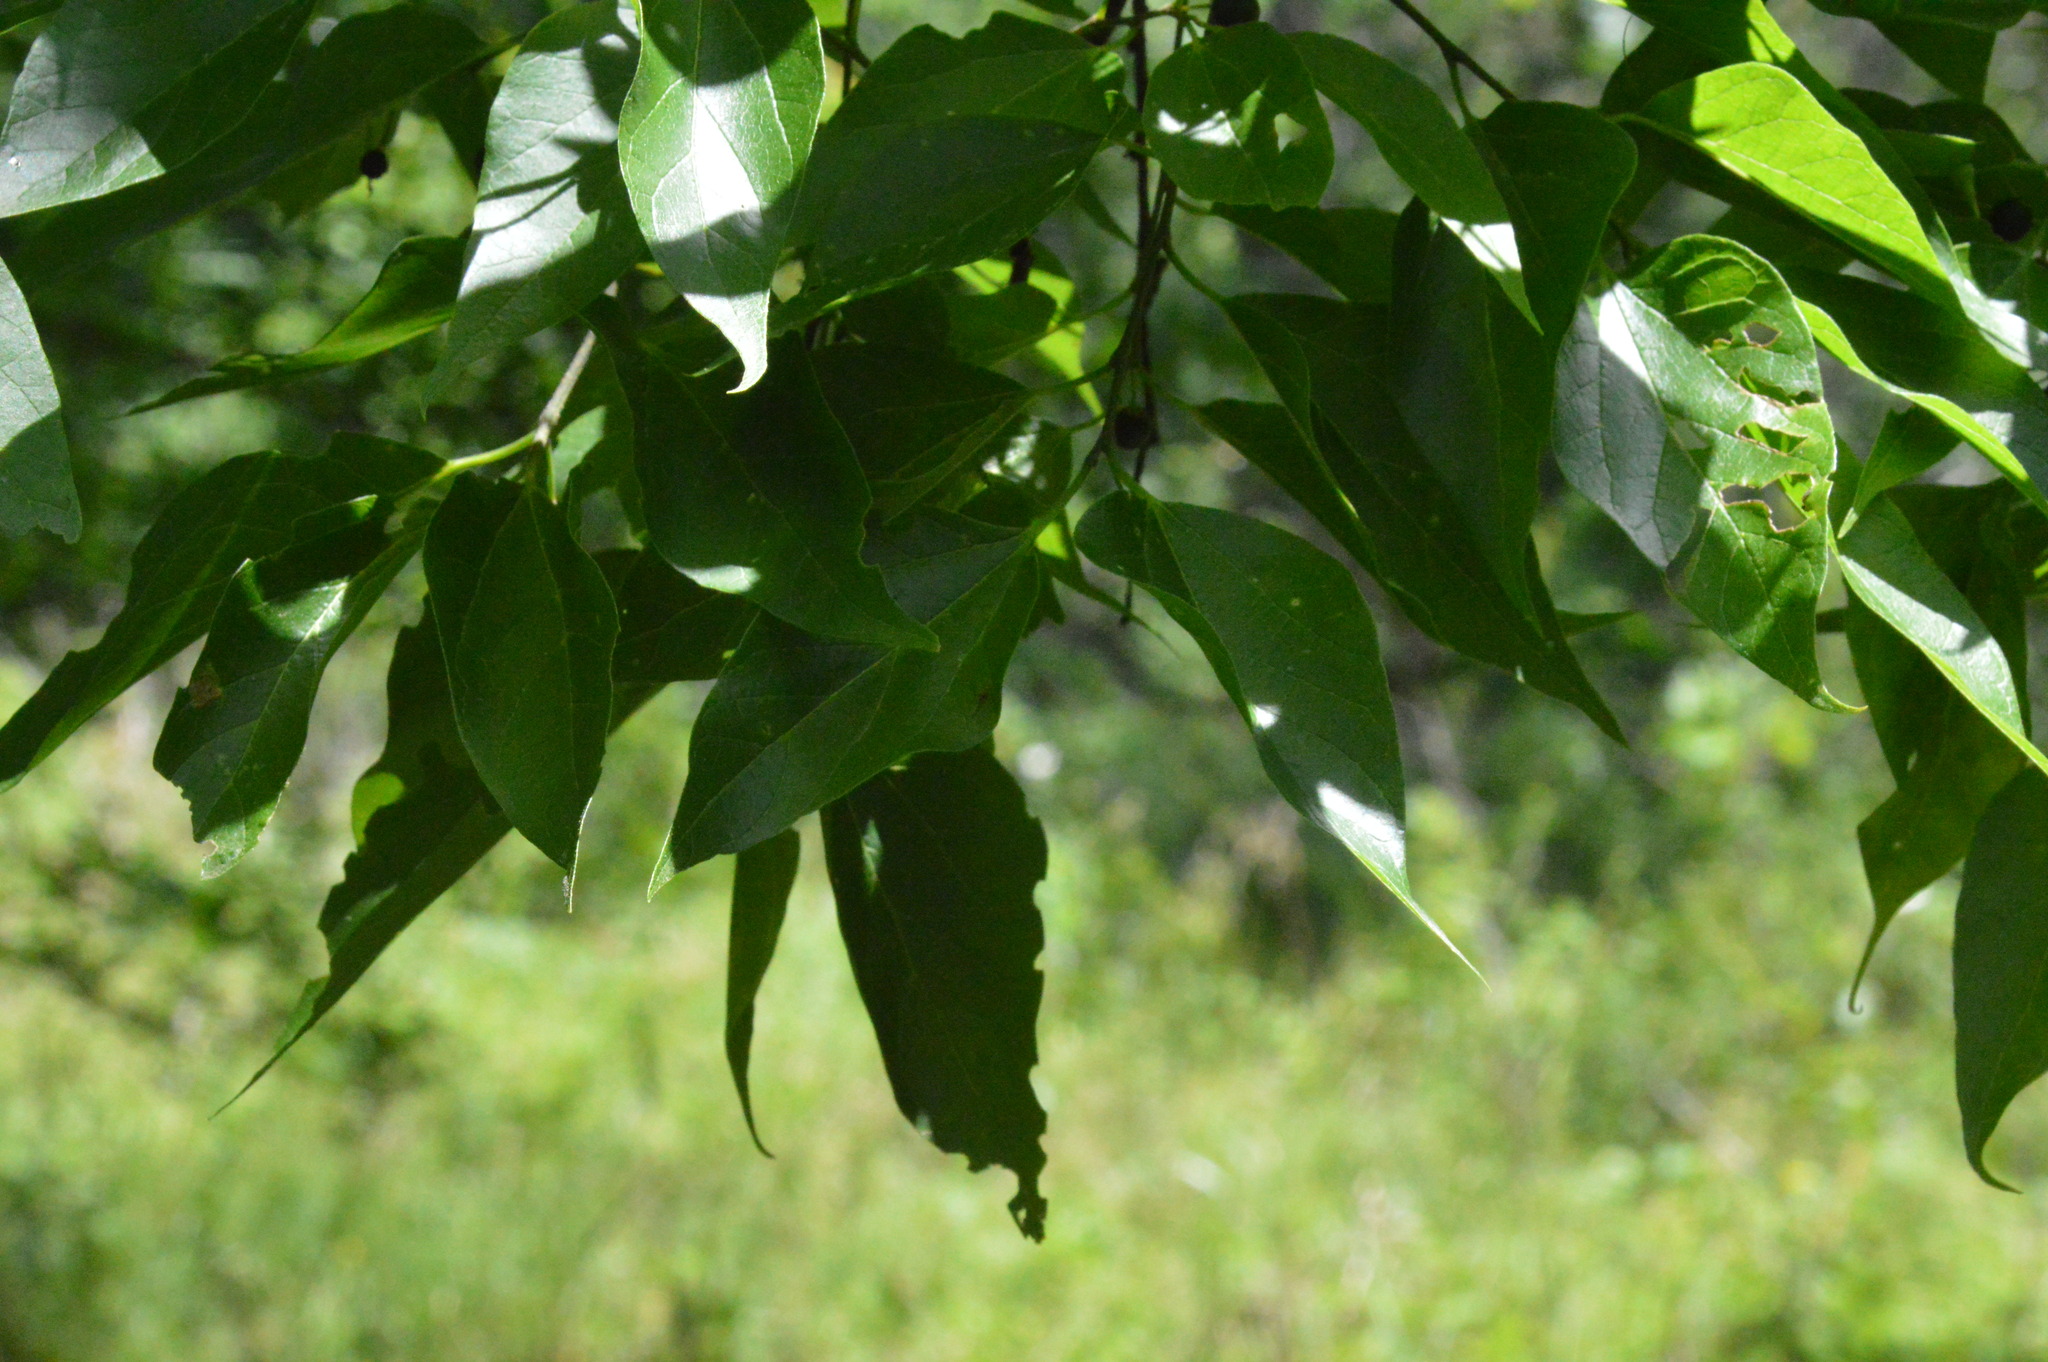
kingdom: Plantae
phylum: Tracheophyta
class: Magnoliopsida
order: Rosales
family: Cannabaceae
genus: Celtis
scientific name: Celtis laevigata
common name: Sugarberry
